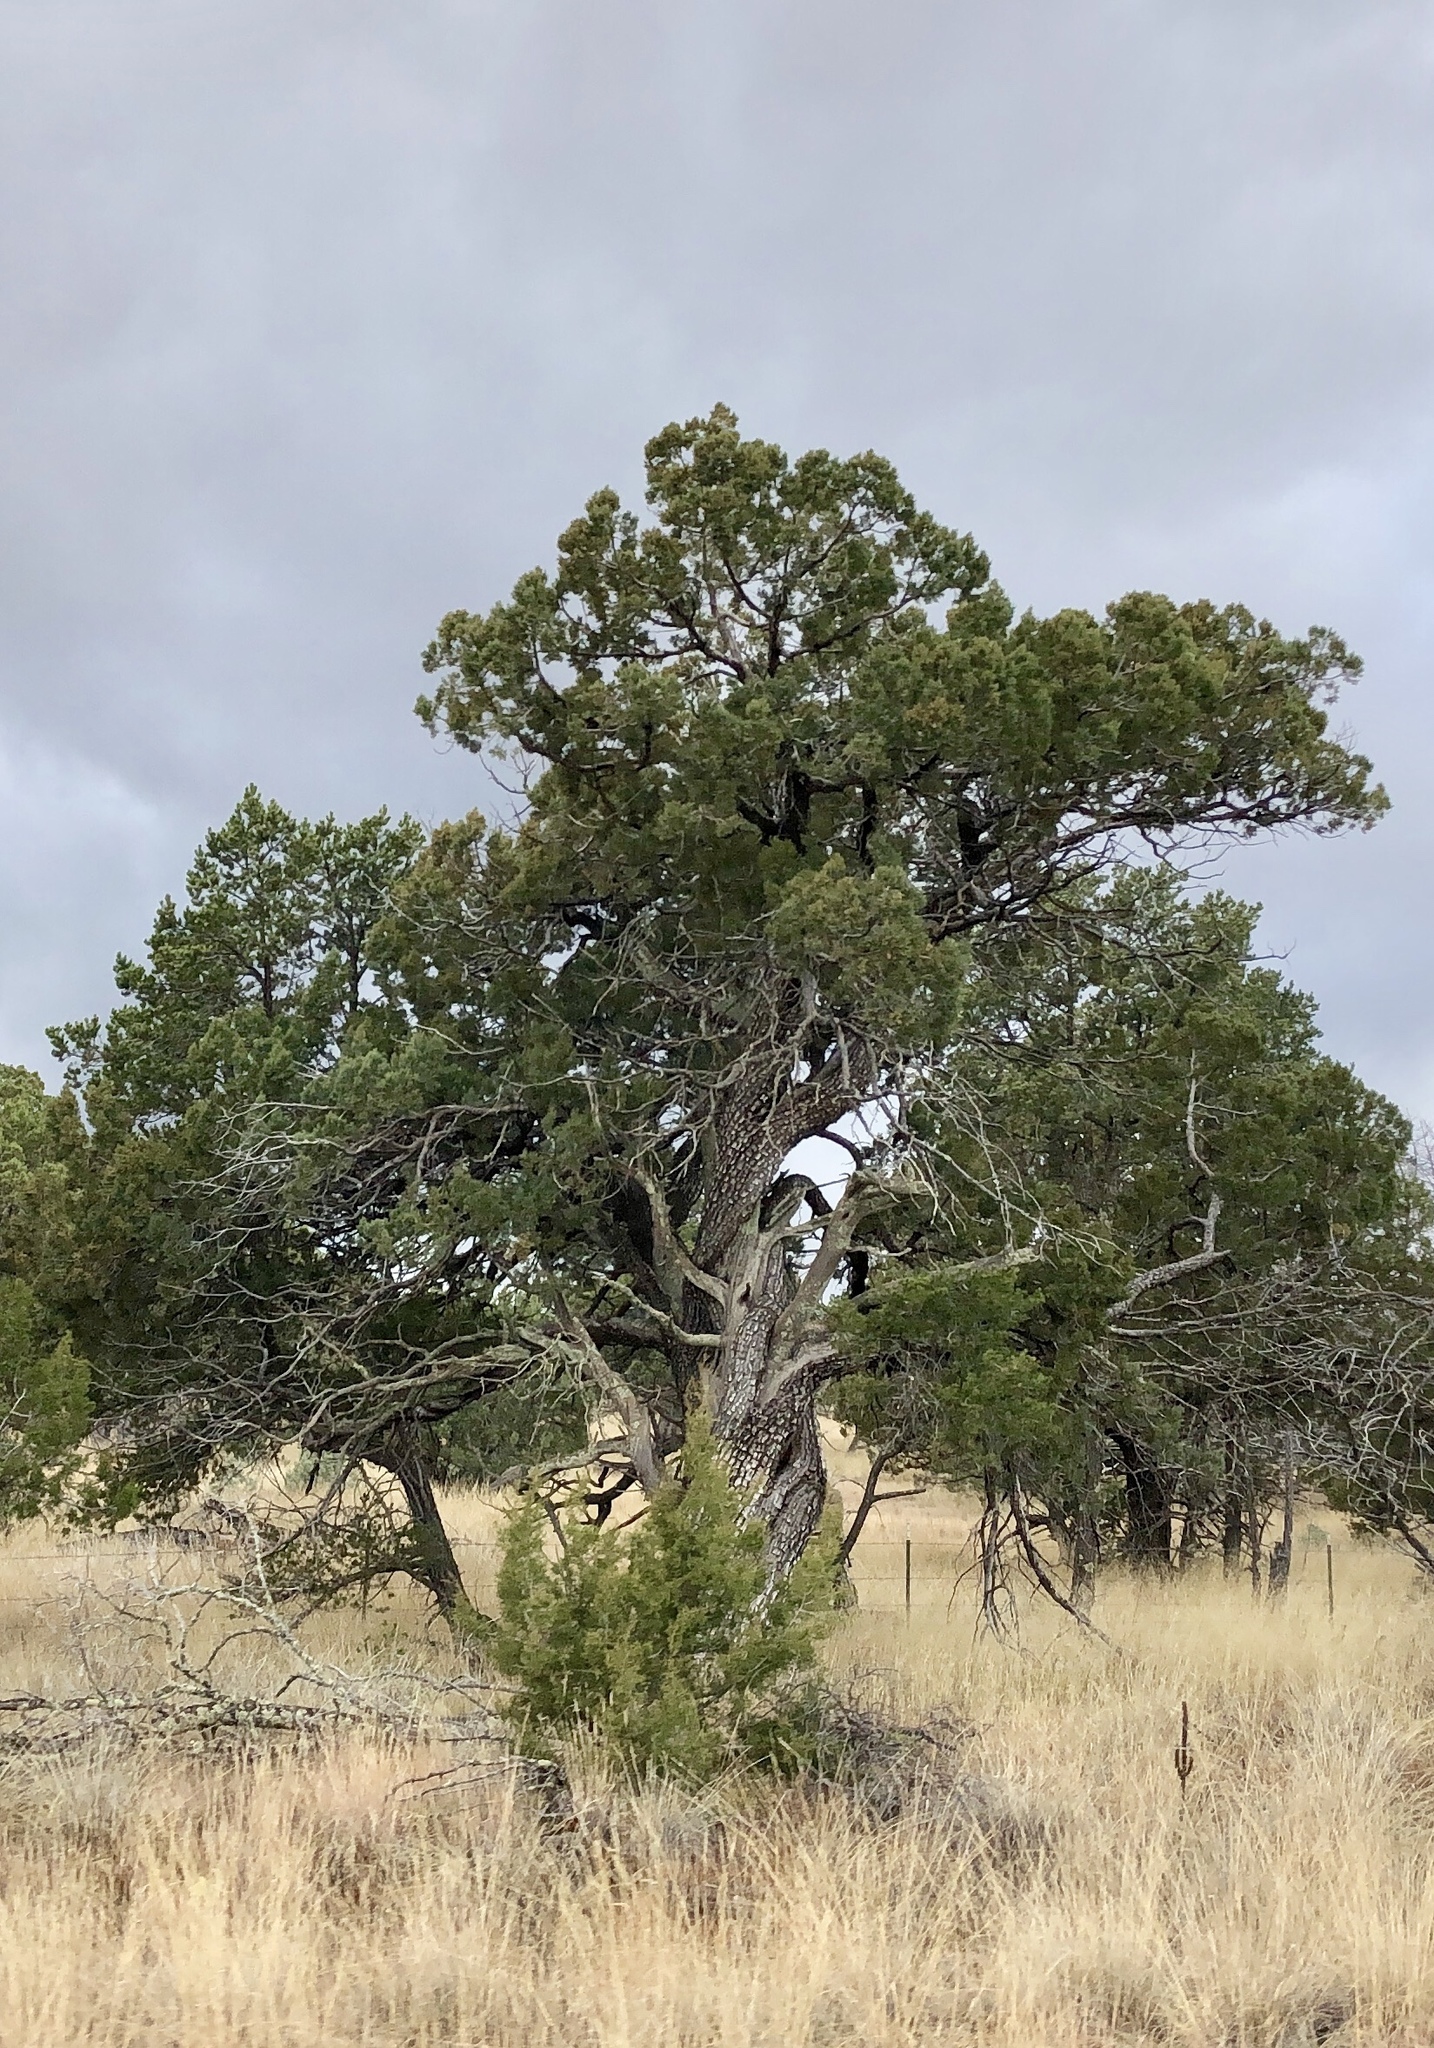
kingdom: Plantae
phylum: Tracheophyta
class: Pinopsida
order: Pinales
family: Cupressaceae
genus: Juniperus
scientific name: Juniperus deppeana
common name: Alligator juniper
